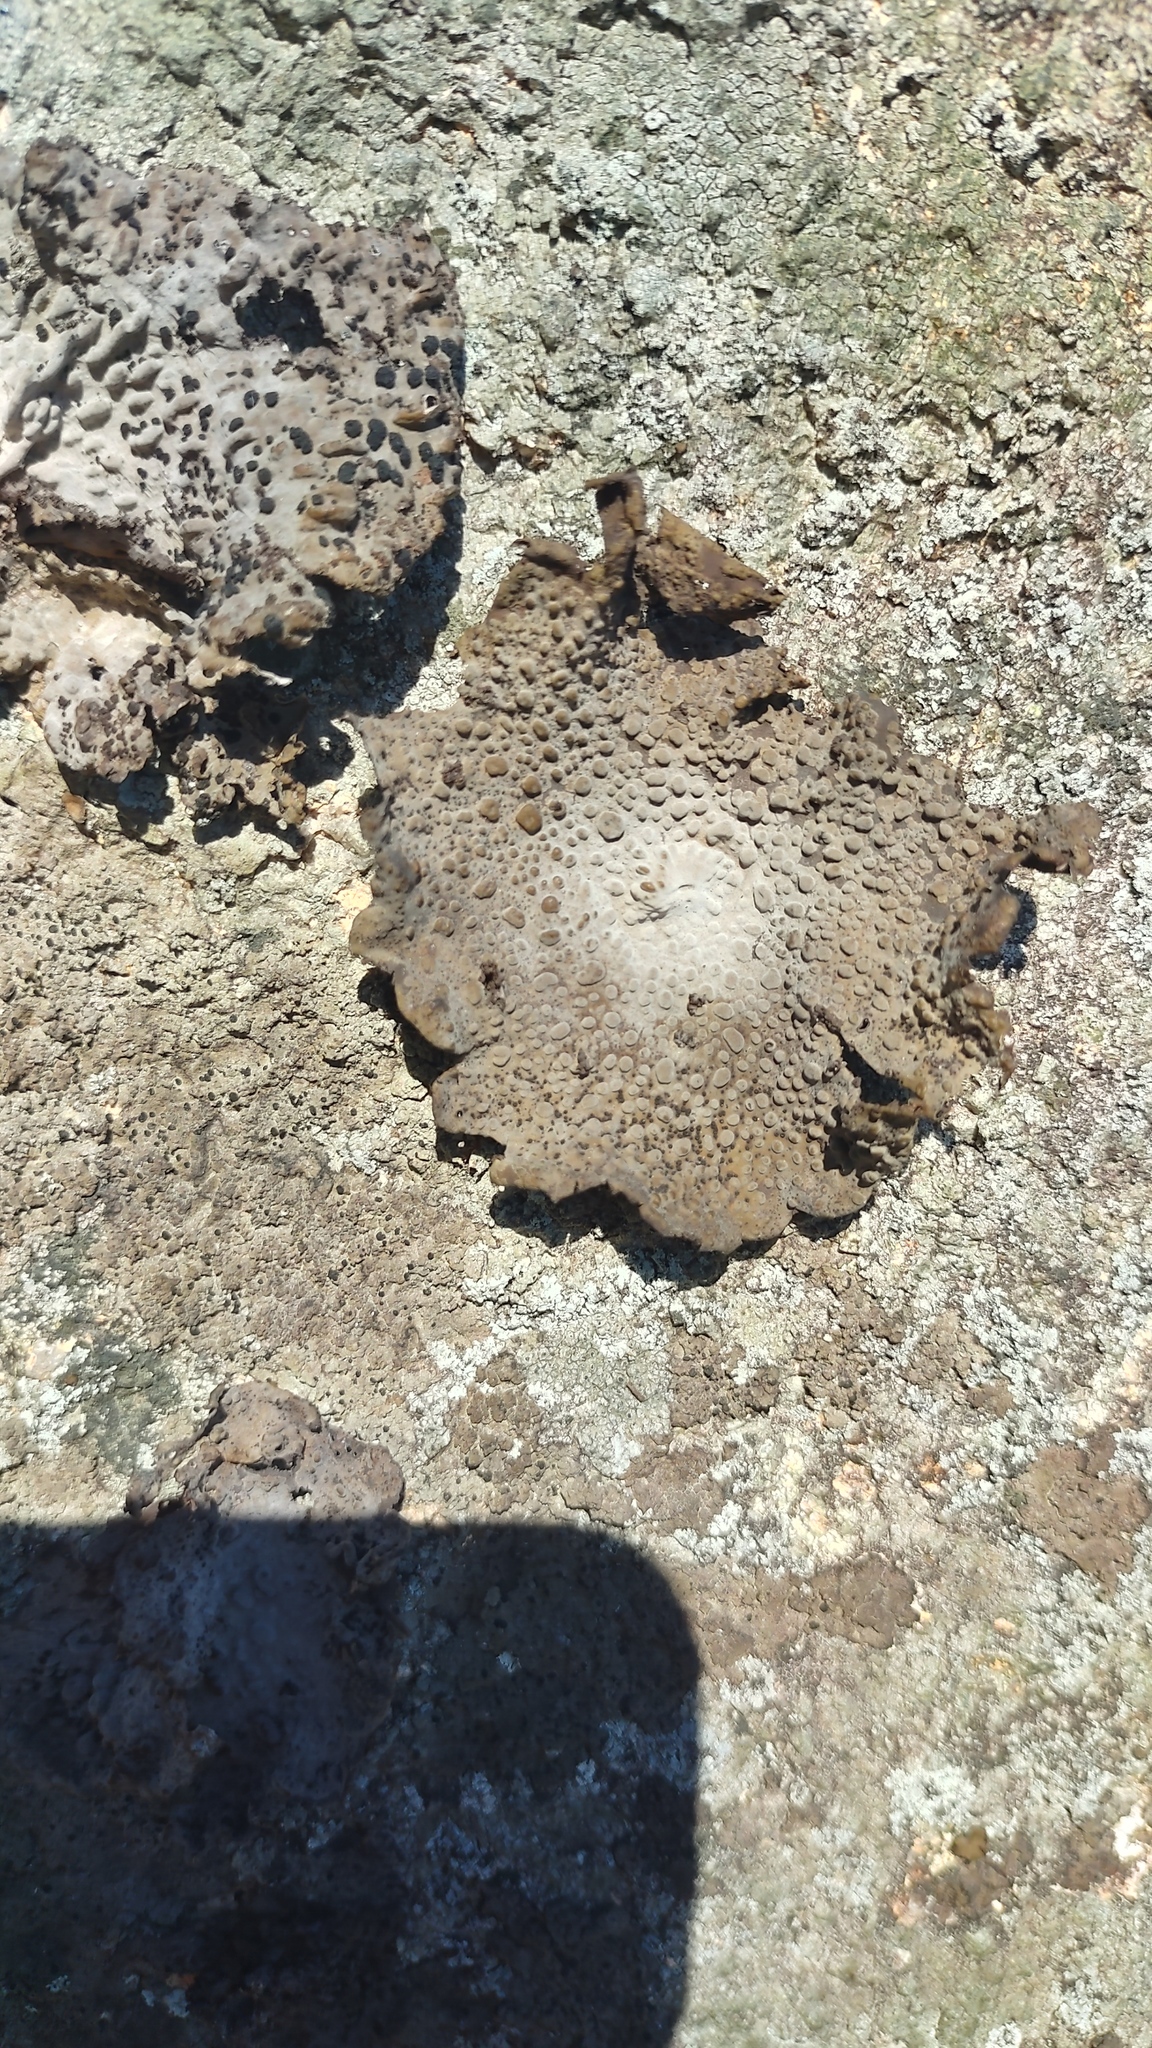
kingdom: Fungi
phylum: Ascomycota
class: Lecanoromycetes
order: Umbilicariales
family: Umbilicariaceae
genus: Lasallia
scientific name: Lasallia papulosa
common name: Common toadskin lichen
